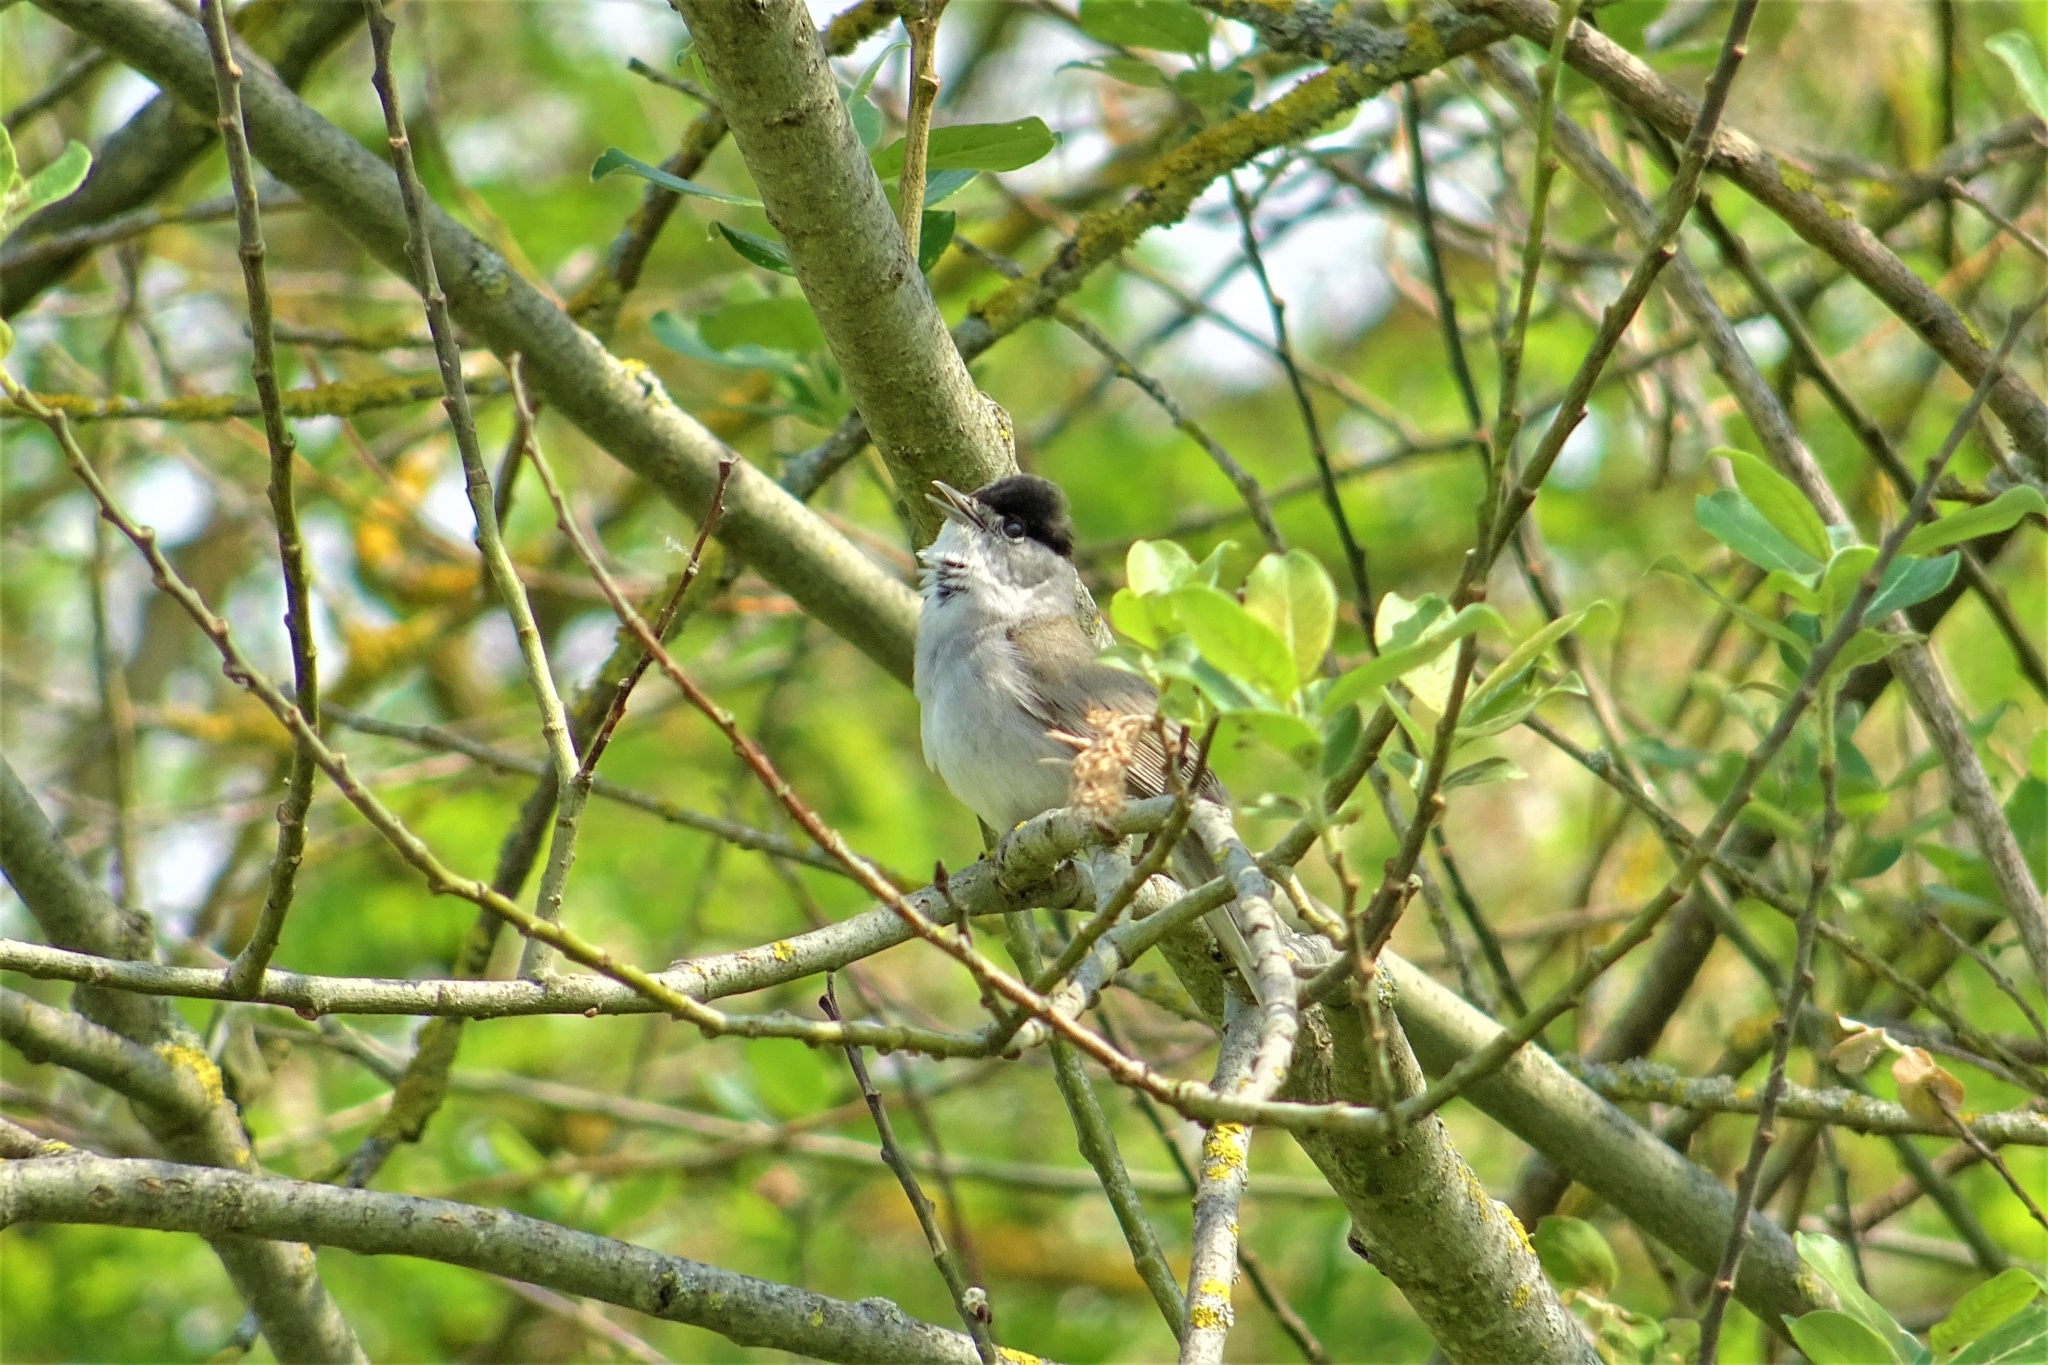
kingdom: Animalia
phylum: Chordata
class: Aves
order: Passeriformes
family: Sylviidae
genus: Sylvia
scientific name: Sylvia atricapilla
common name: Eurasian blackcap
